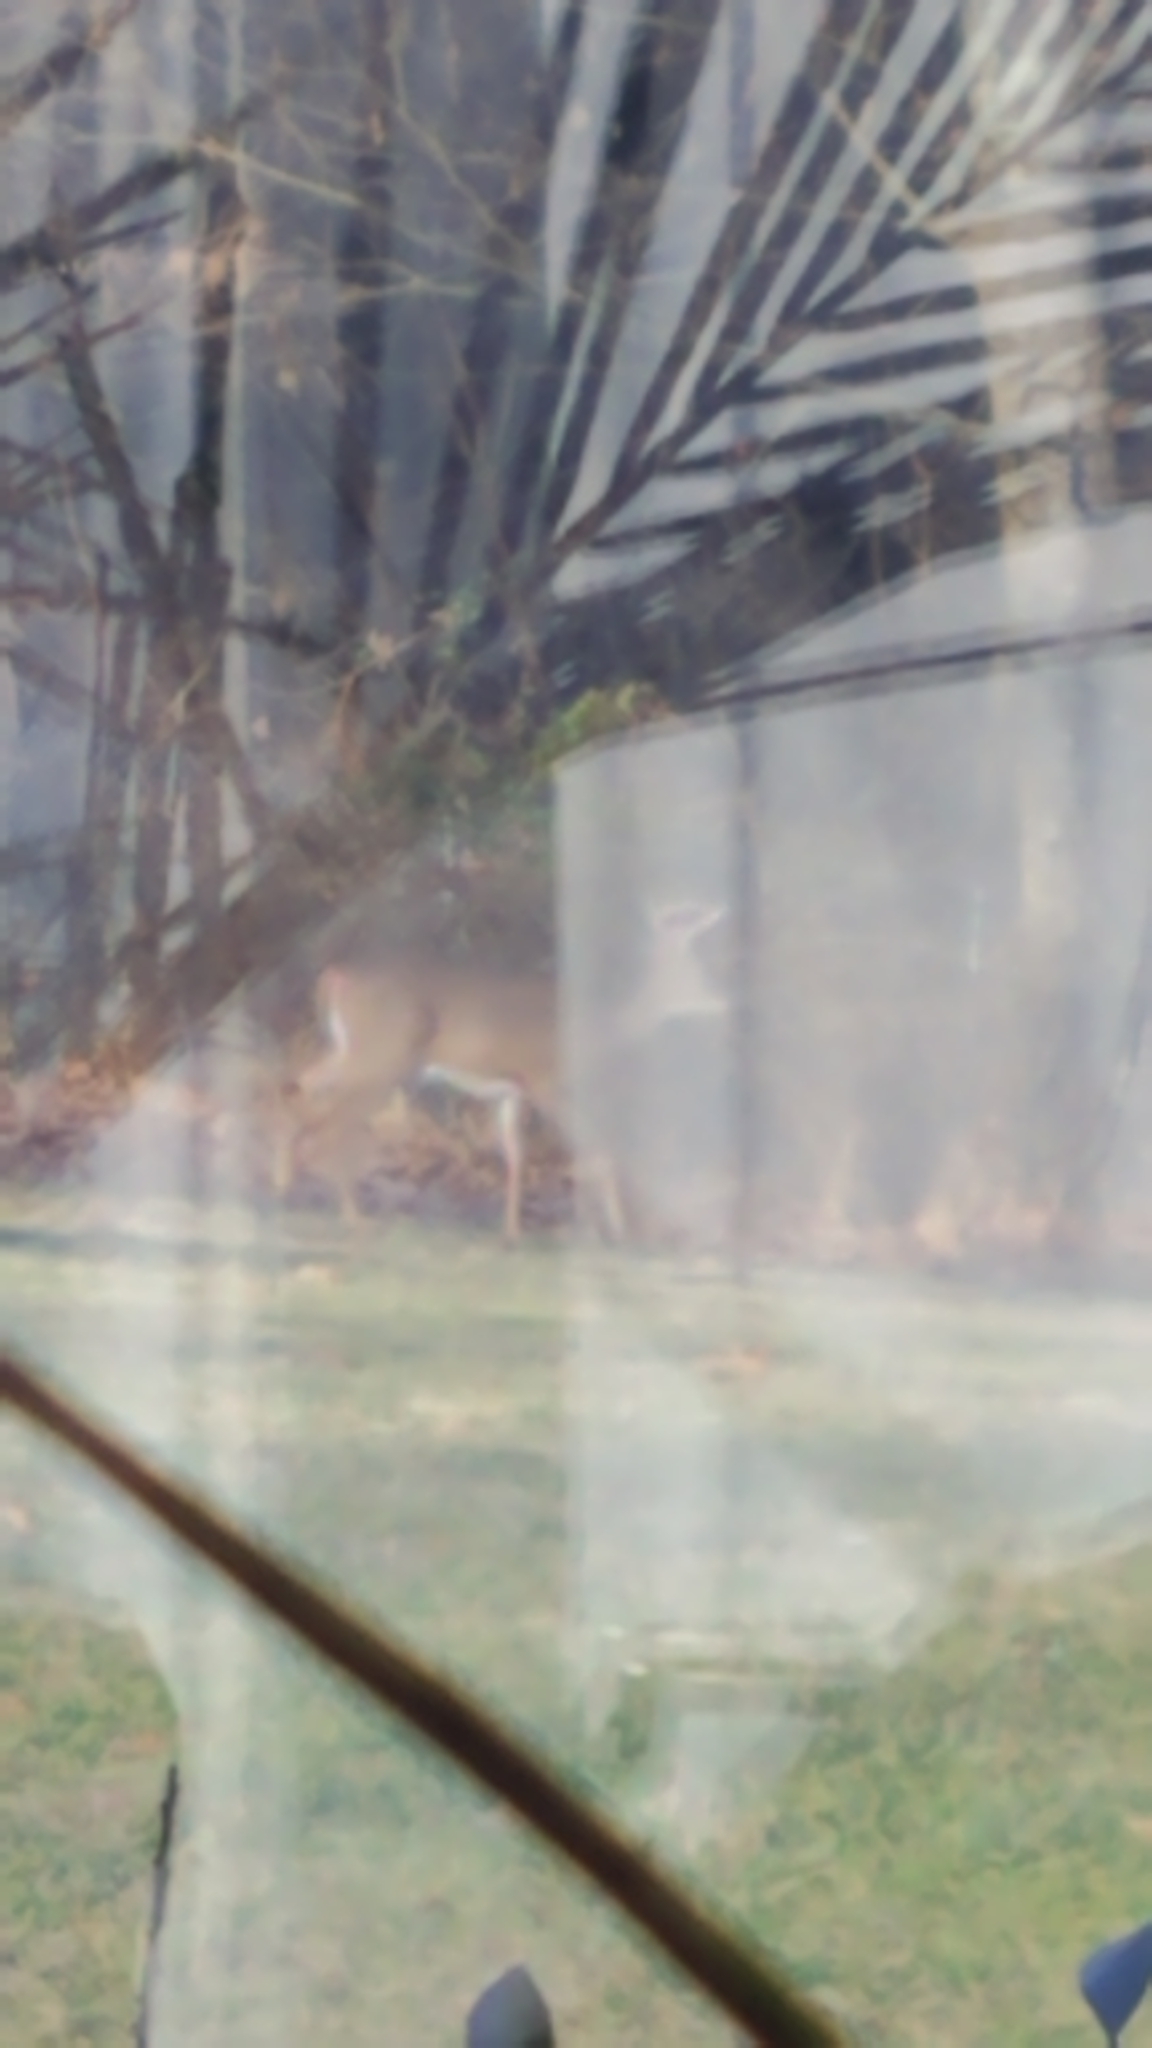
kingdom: Animalia
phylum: Chordata
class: Mammalia
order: Artiodactyla
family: Cervidae
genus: Odocoileus
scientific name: Odocoileus virginianus
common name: White-tailed deer
